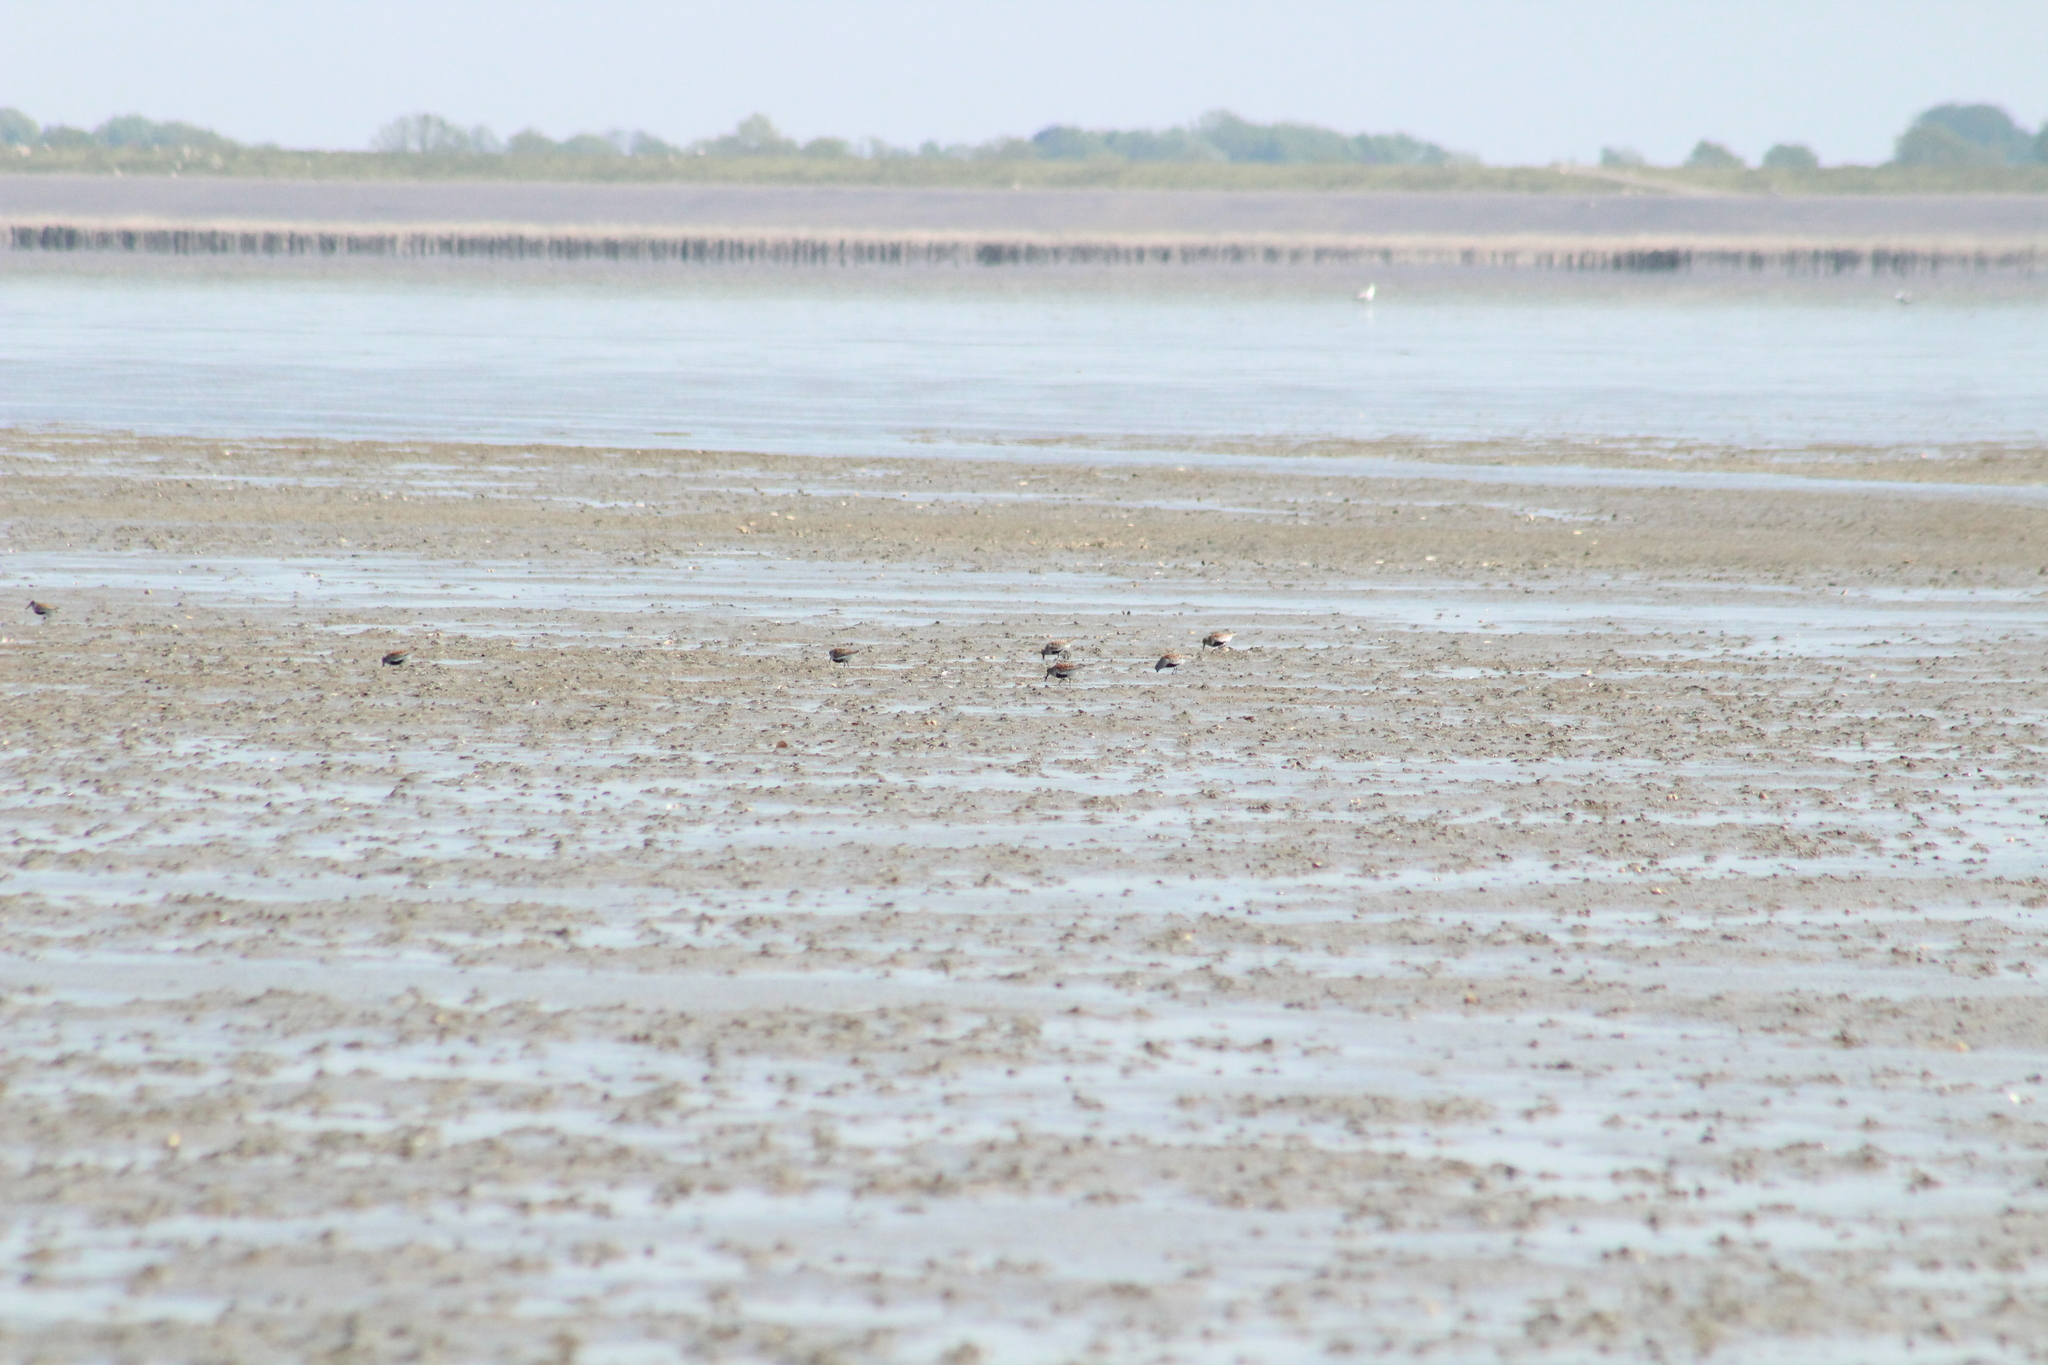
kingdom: Animalia
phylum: Chordata
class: Aves
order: Charadriiformes
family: Scolopacidae
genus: Calidris
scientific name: Calidris alpina
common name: Dunlin
